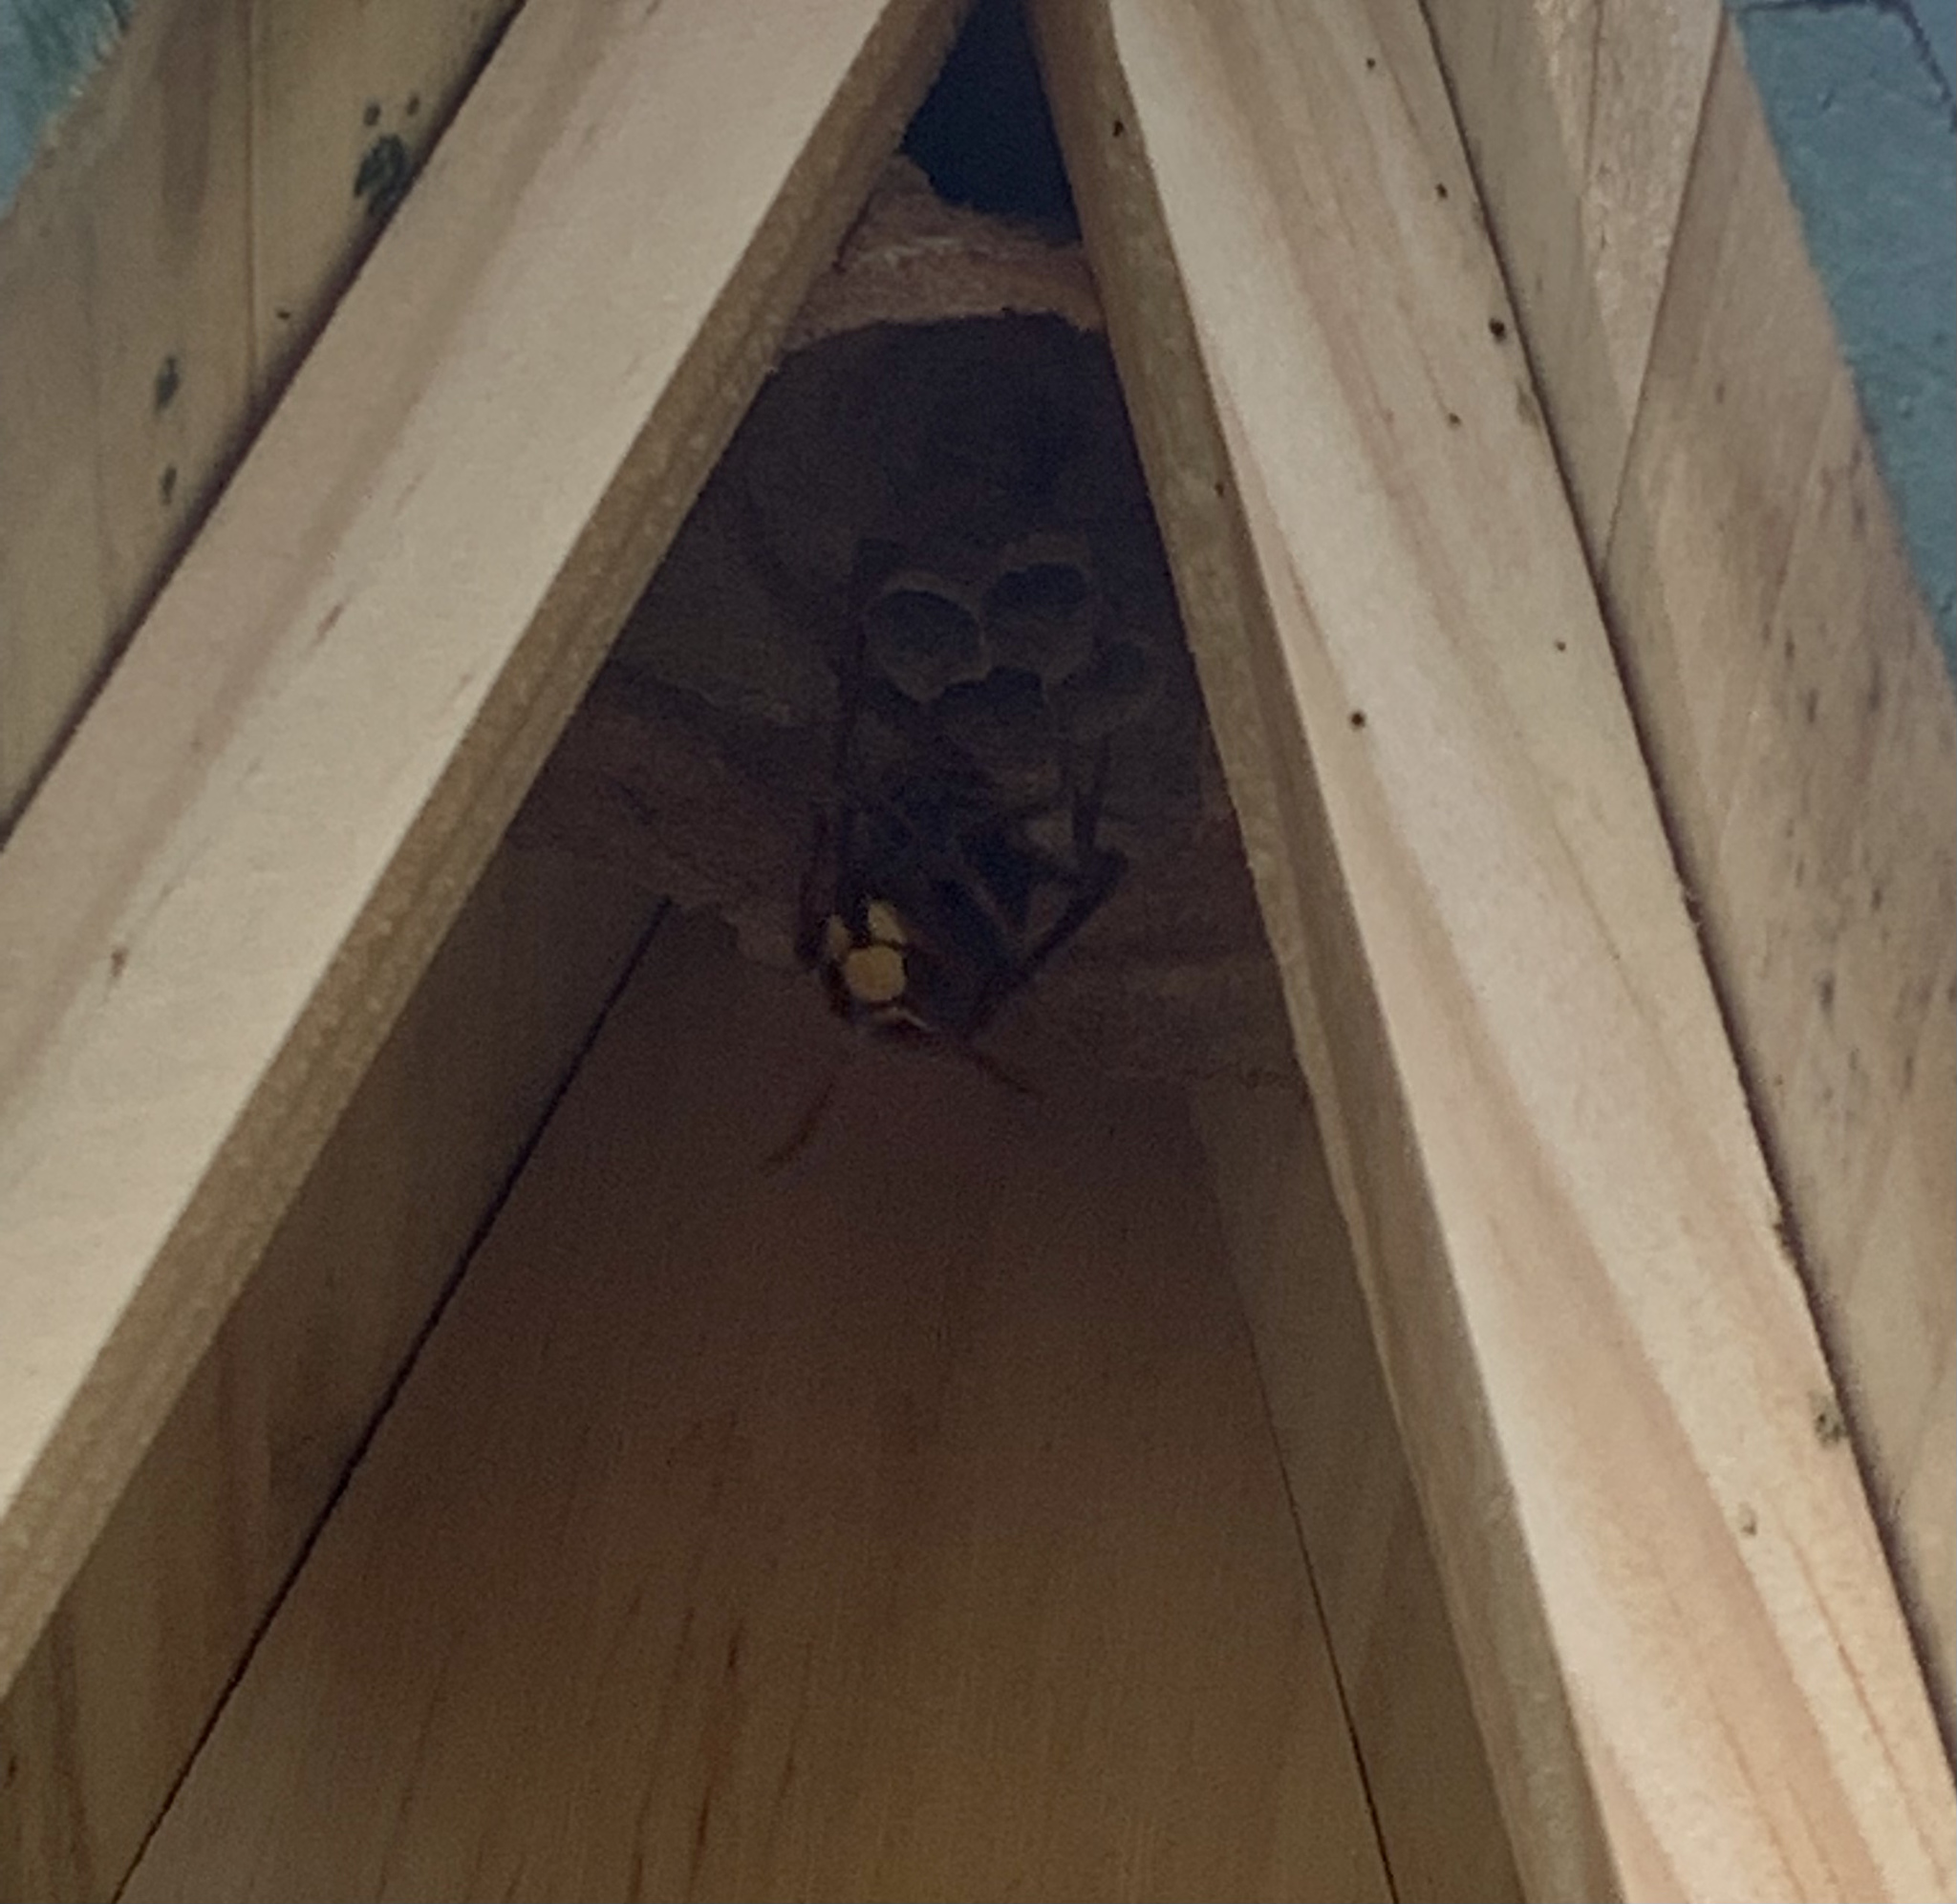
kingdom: Animalia
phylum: Arthropoda
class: Insecta
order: Hymenoptera
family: Vespidae
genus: Vespa
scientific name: Vespa crabro
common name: Hornet
